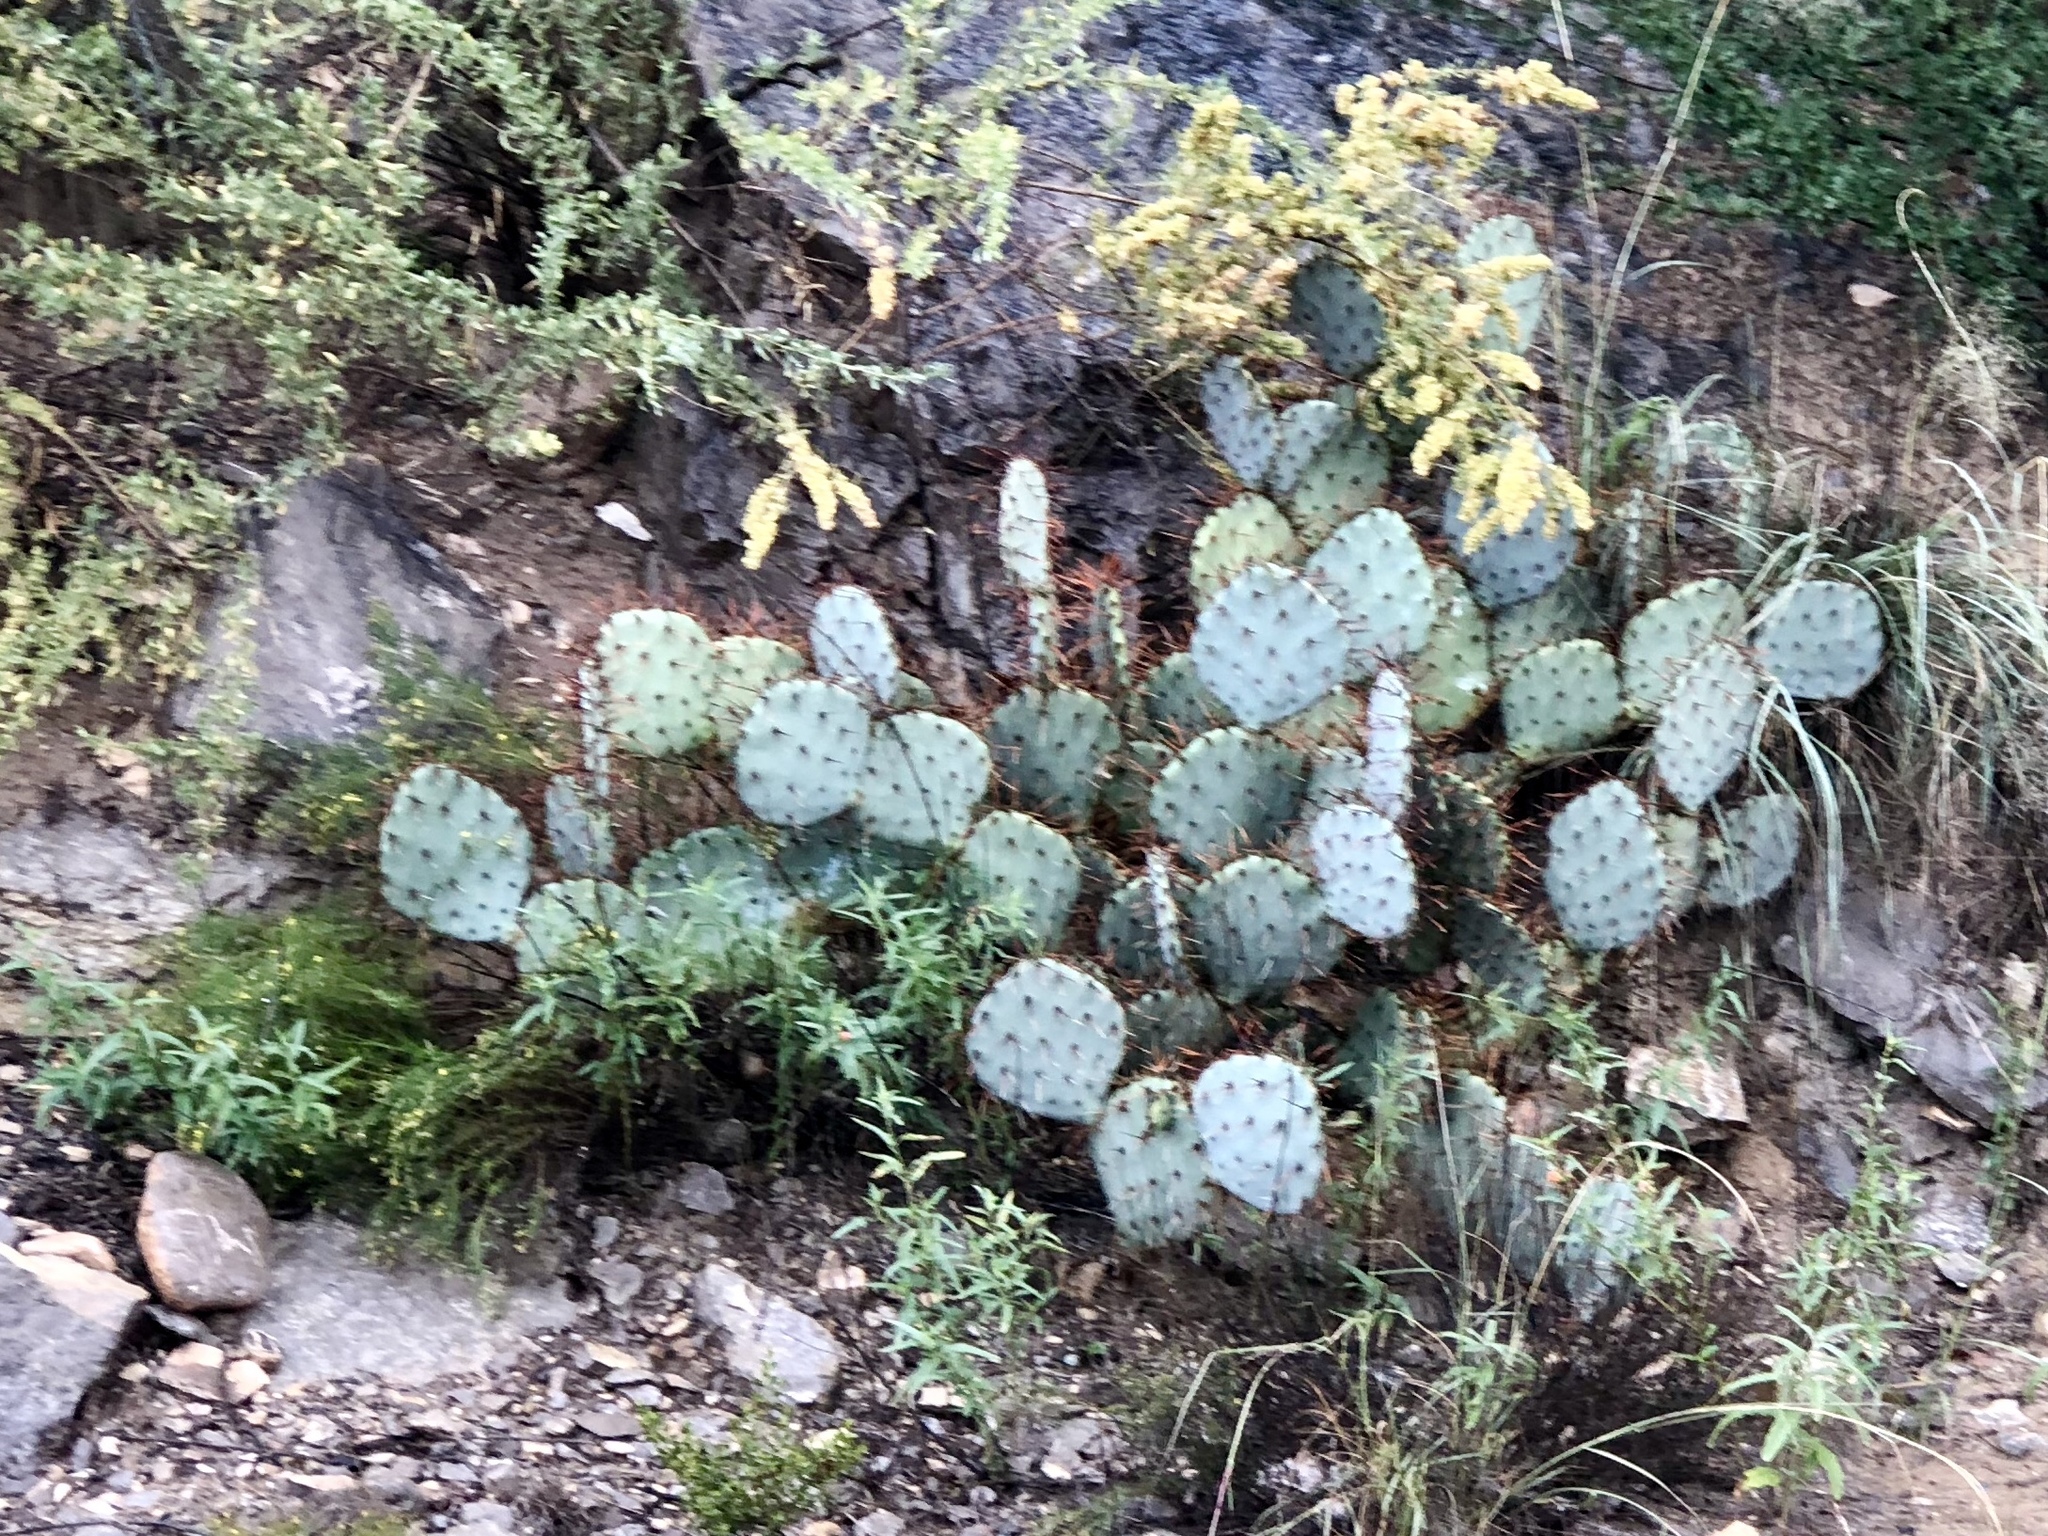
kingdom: Plantae
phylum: Tracheophyta
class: Magnoliopsida
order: Caryophyllales
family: Cactaceae
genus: Opuntia
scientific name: Opuntia macrocentra
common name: Purple prickly-pear
